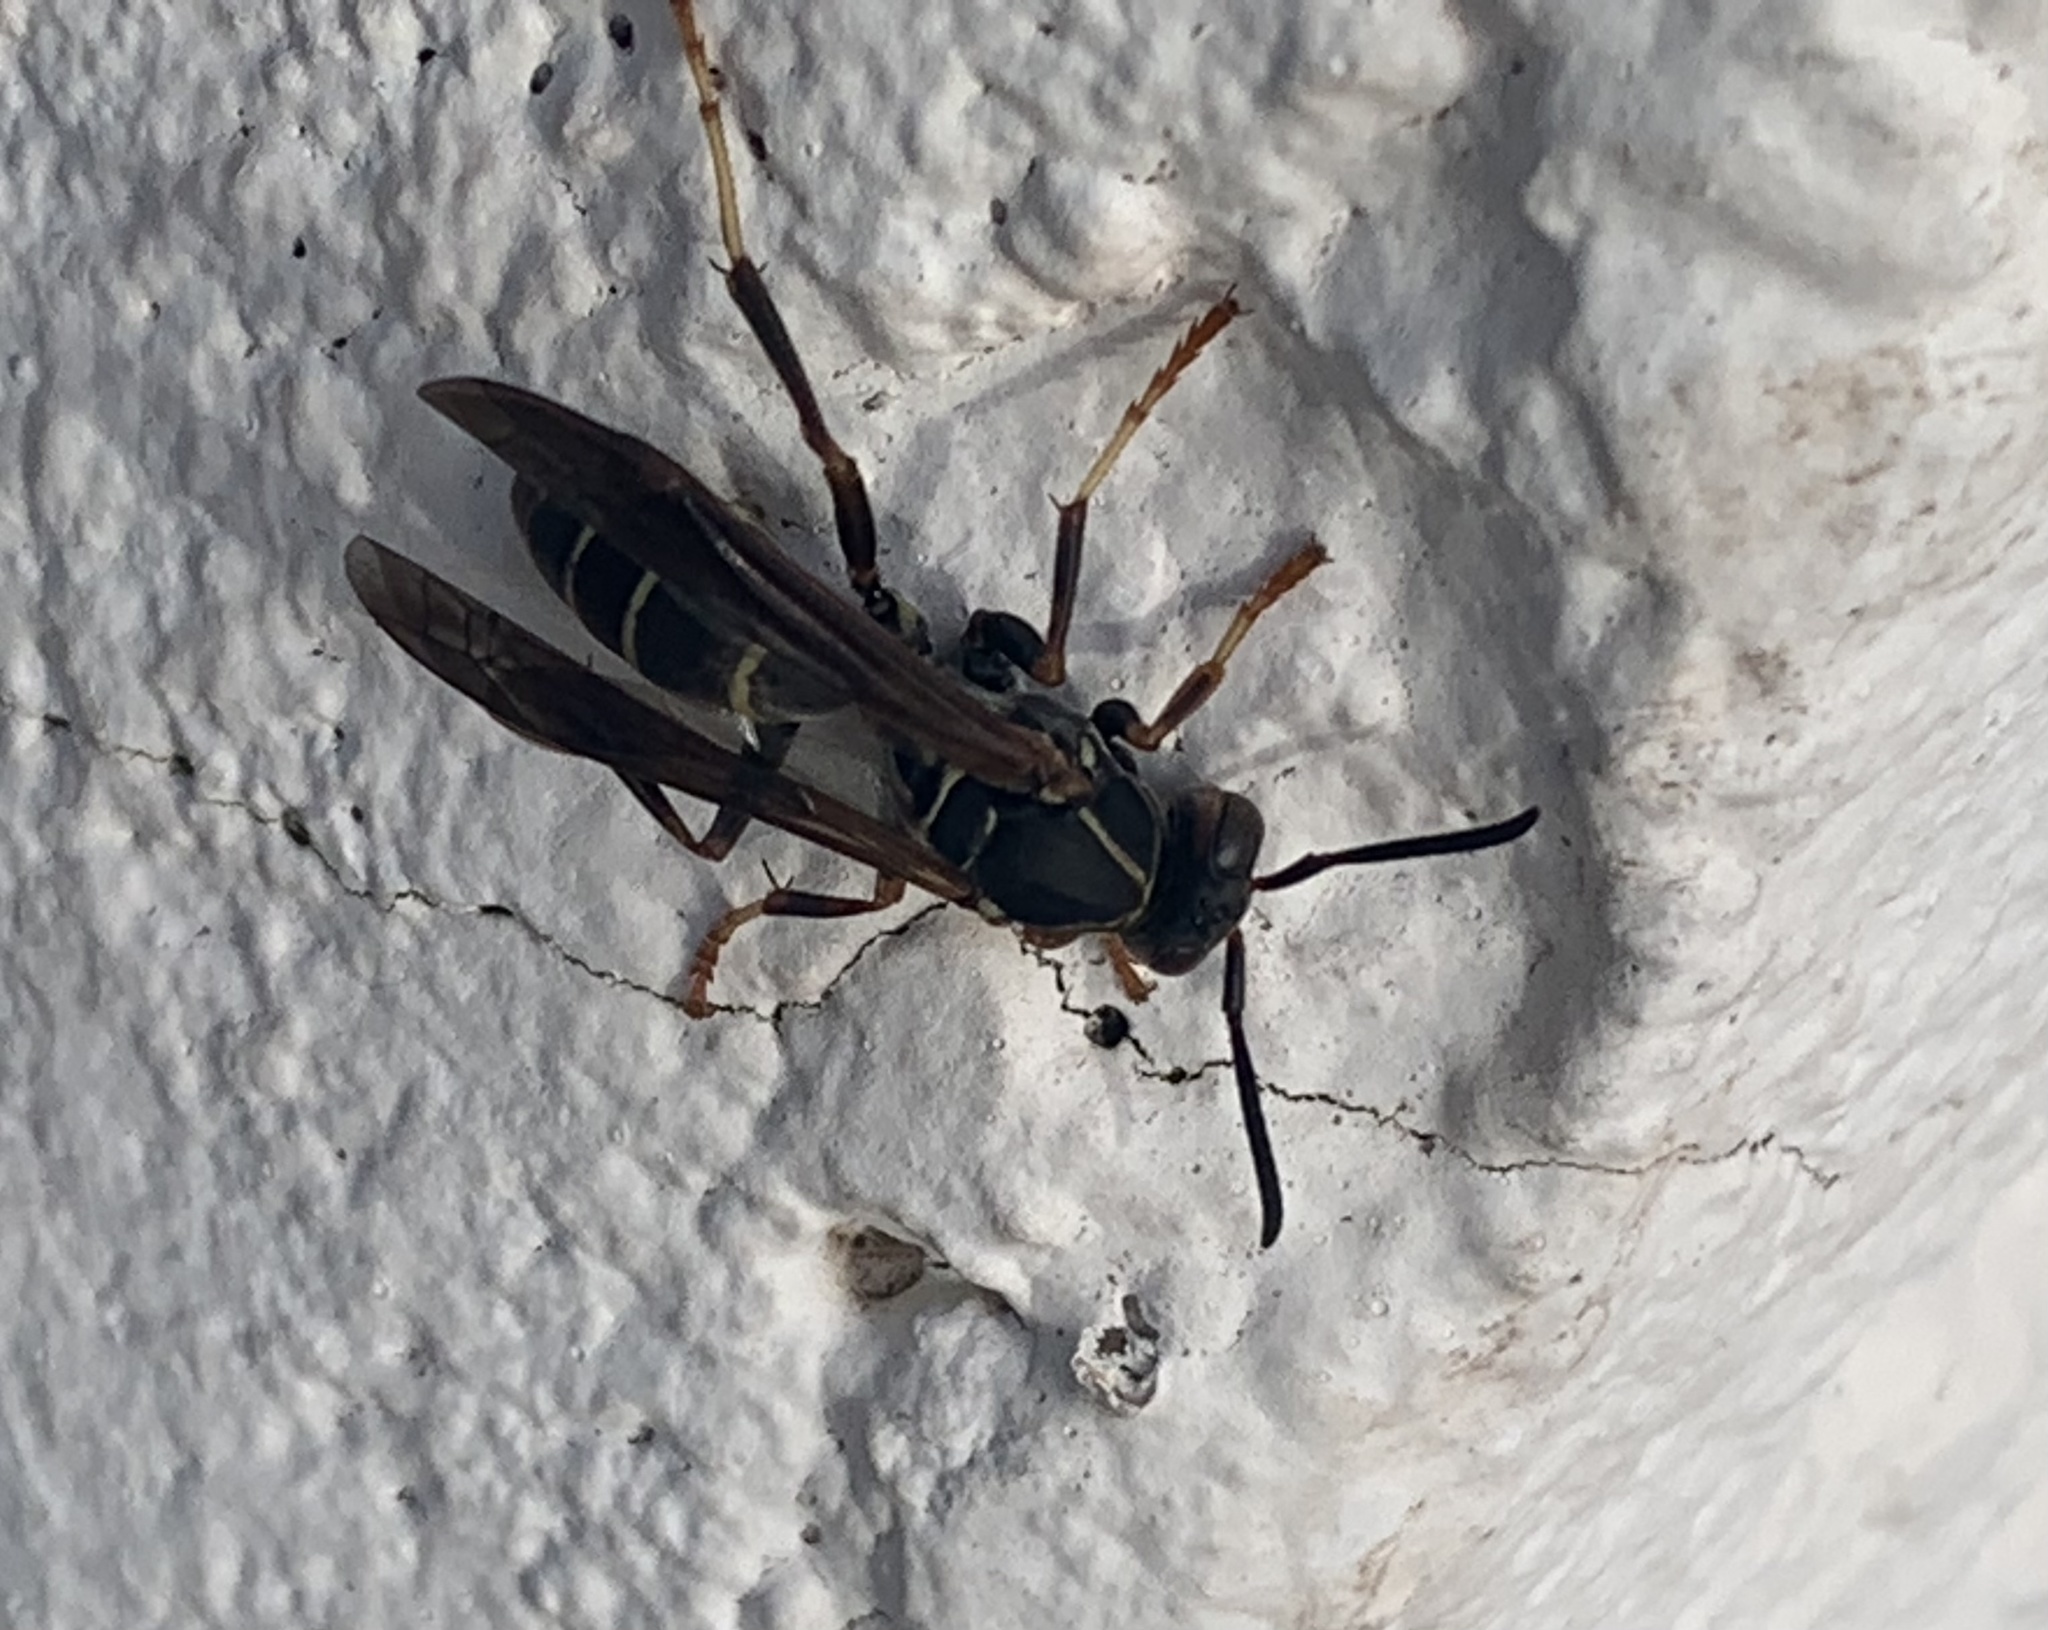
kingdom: Animalia
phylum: Arthropoda
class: Insecta
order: Hymenoptera
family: Eumenidae
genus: Polistes
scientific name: Polistes fuscatus
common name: Dark paper wasp
